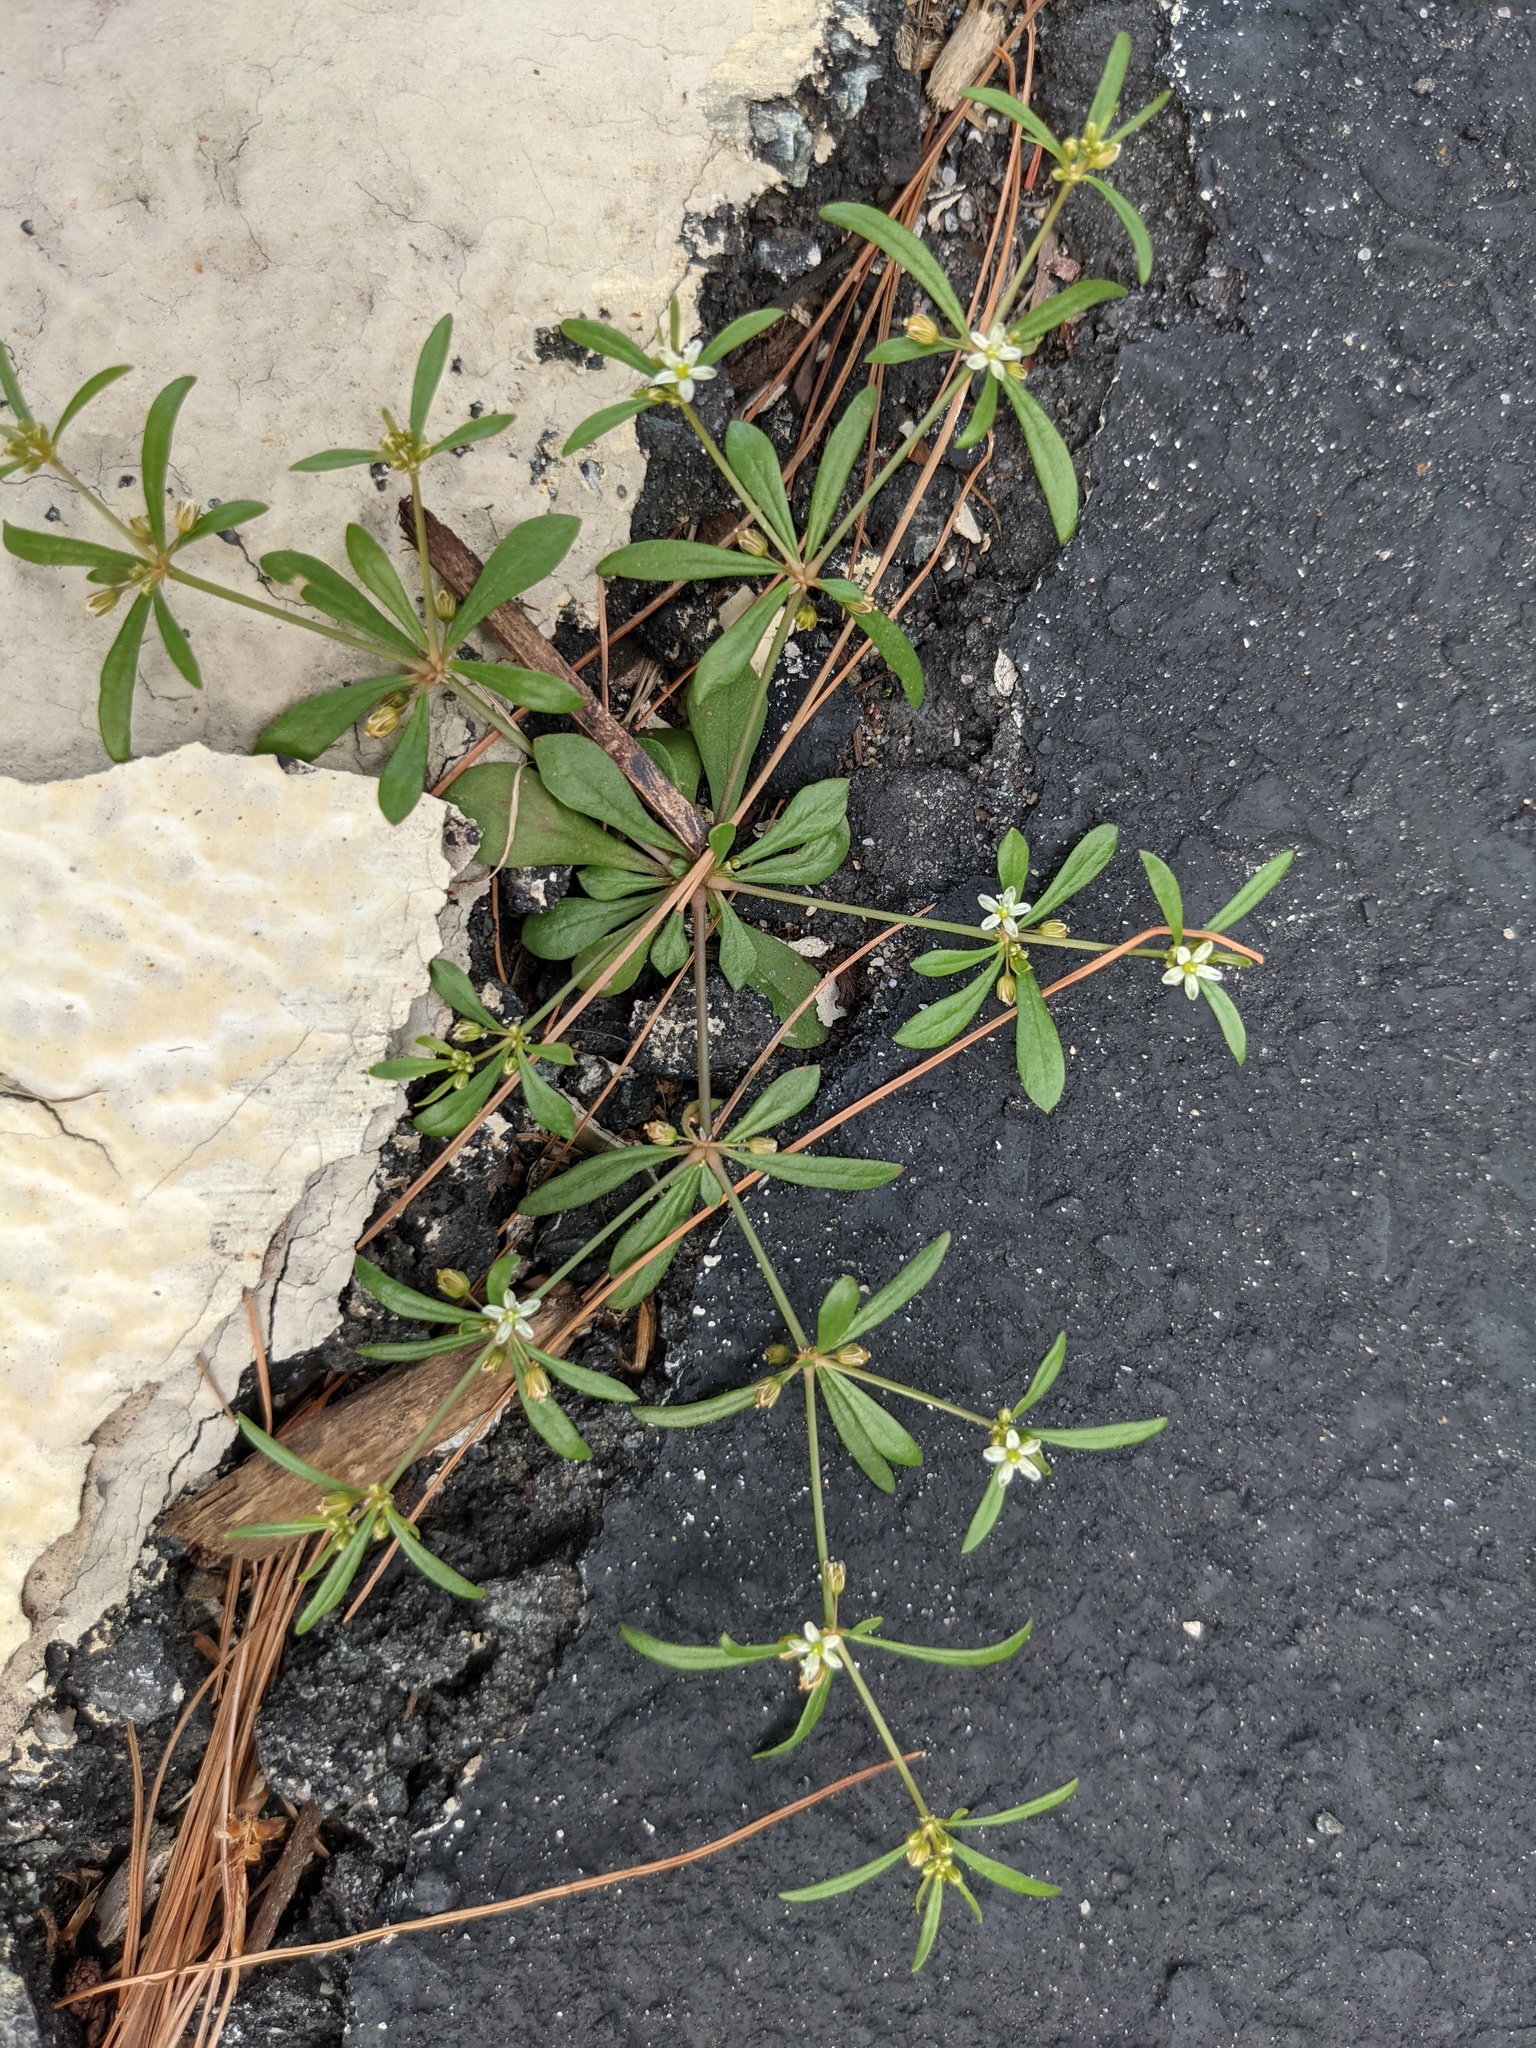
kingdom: Plantae
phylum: Tracheophyta
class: Magnoliopsida
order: Caryophyllales
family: Molluginaceae
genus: Mollugo
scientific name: Mollugo verticillata
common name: Green carpetweed
